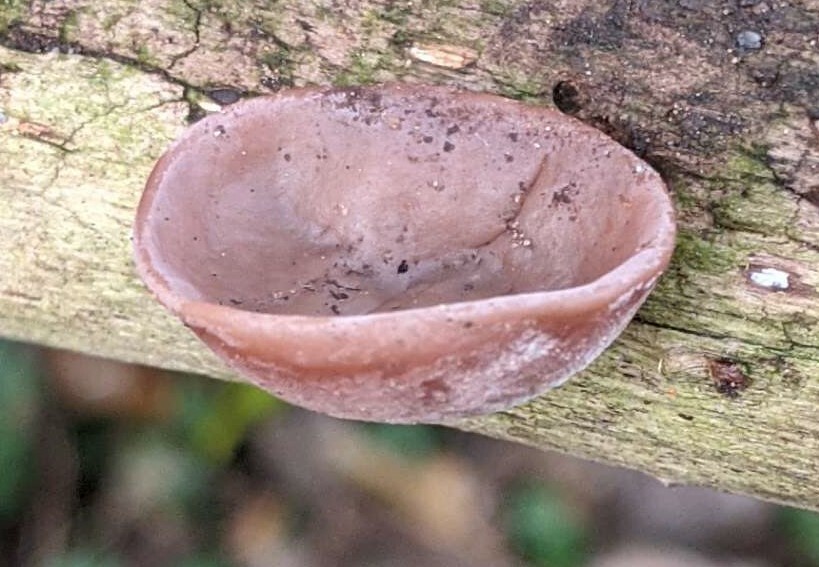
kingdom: Fungi
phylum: Basidiomycota
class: Agaricomycetes
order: Auriculariales
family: Auriculariaceae
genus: Auricularia
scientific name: Auricularia auricula-judae
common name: Jelly ear
